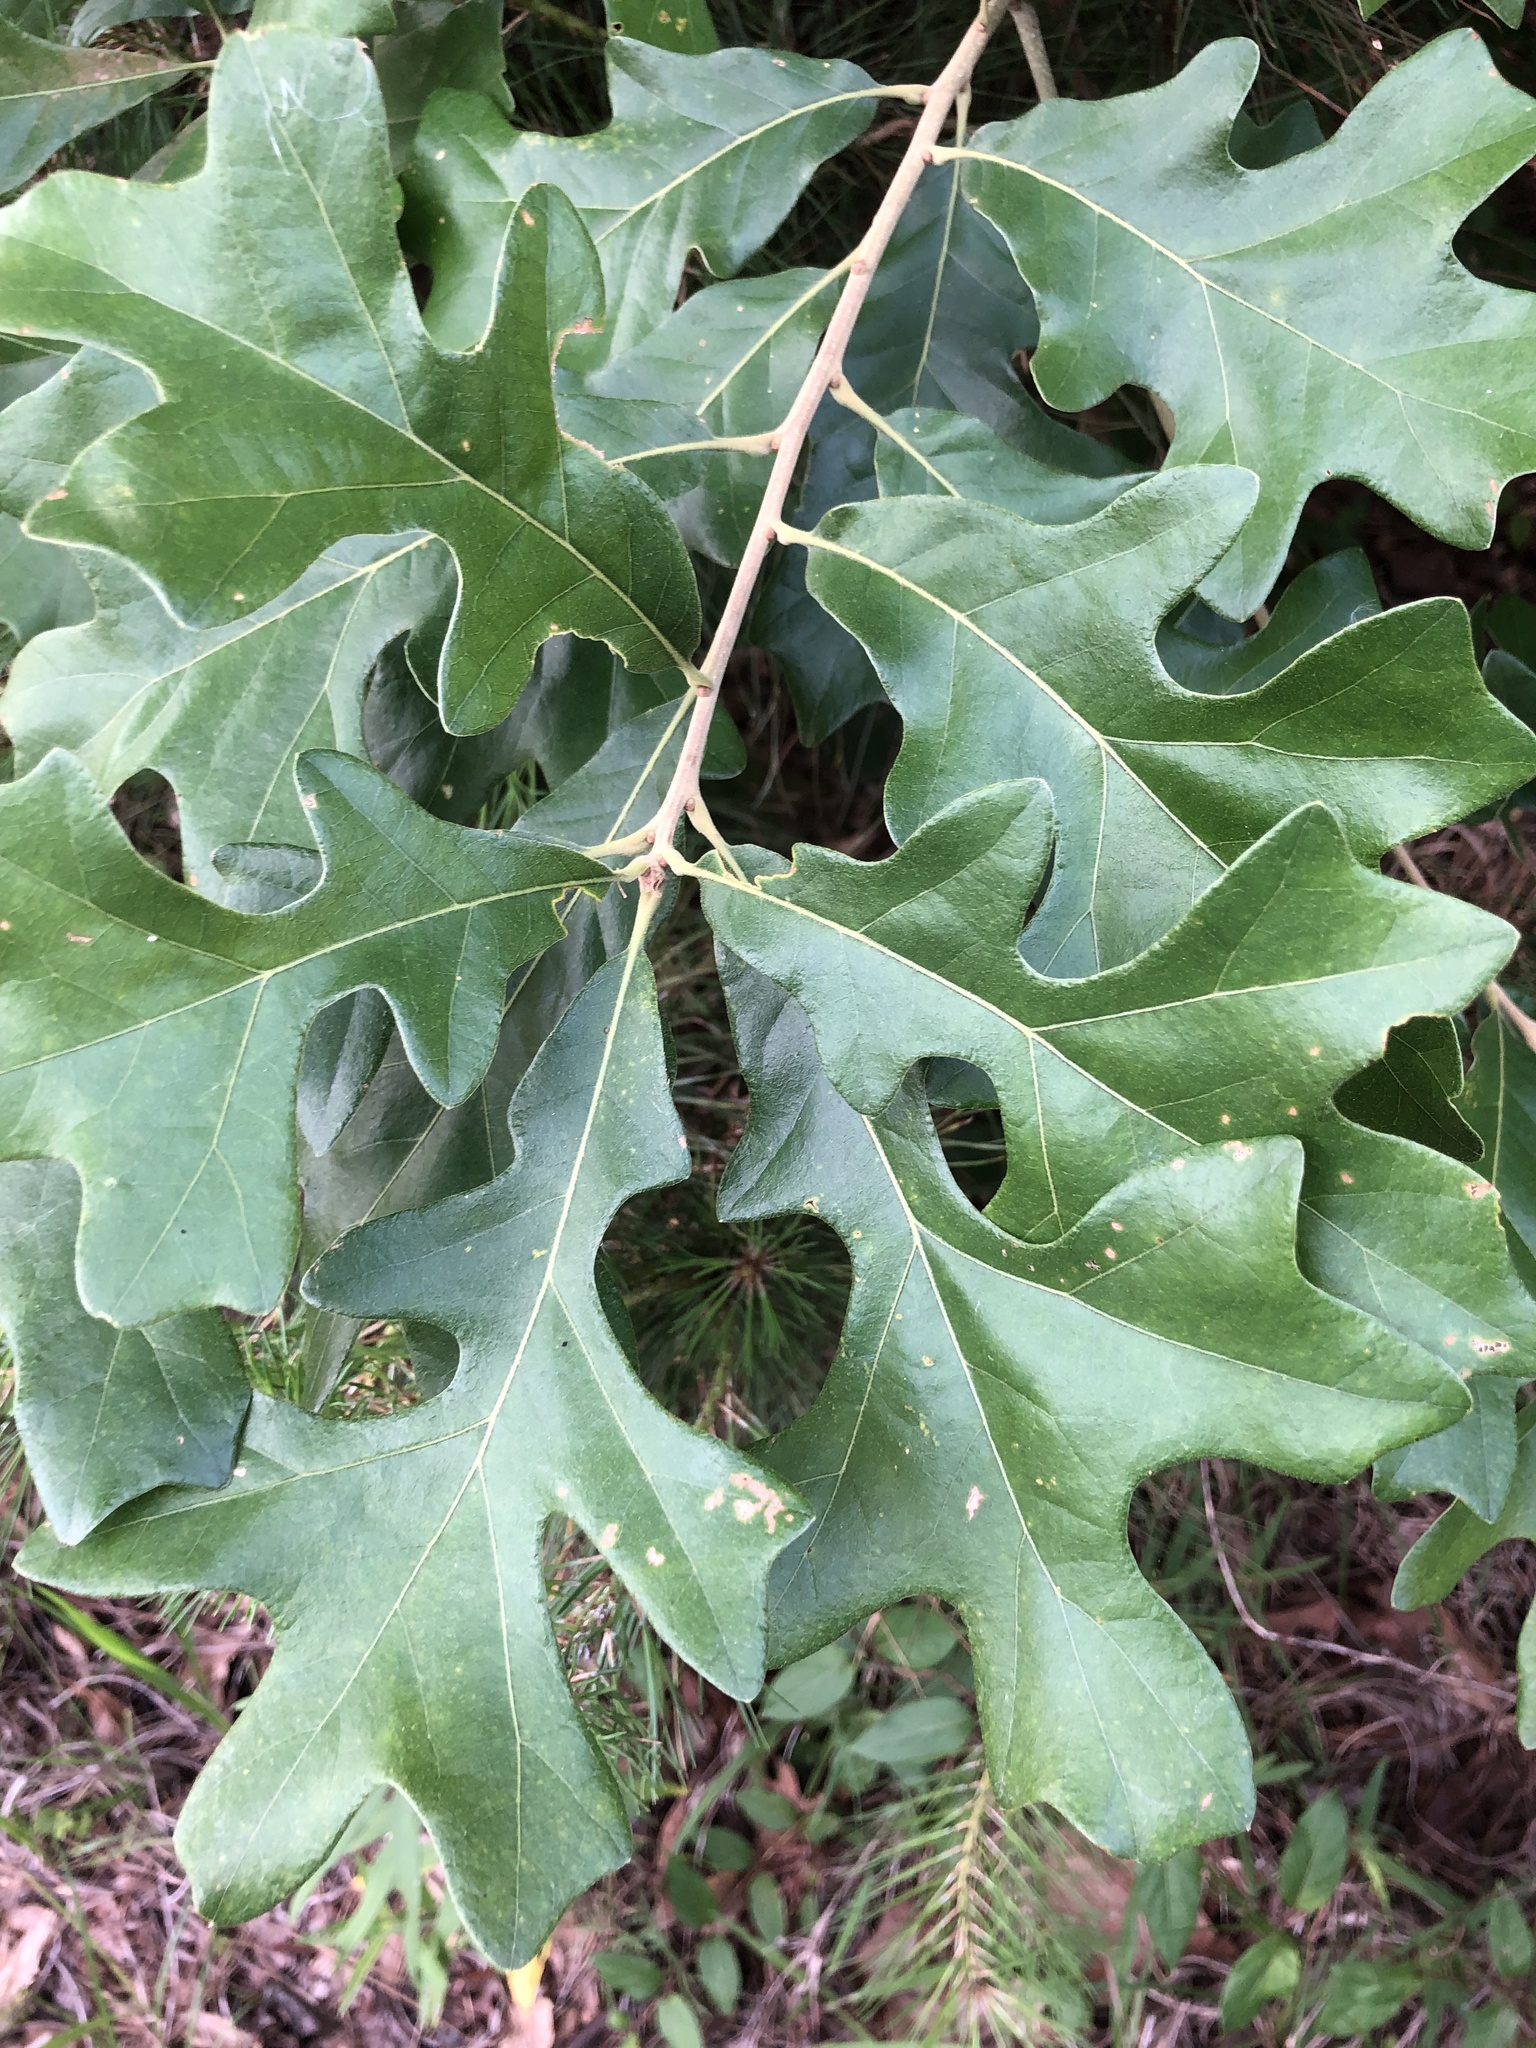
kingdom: Plantae
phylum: Tracheophyta
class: Magnoliopsida
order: Fagales
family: Fagaceae
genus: Quercus
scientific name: Quercus stellata
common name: Post oak
